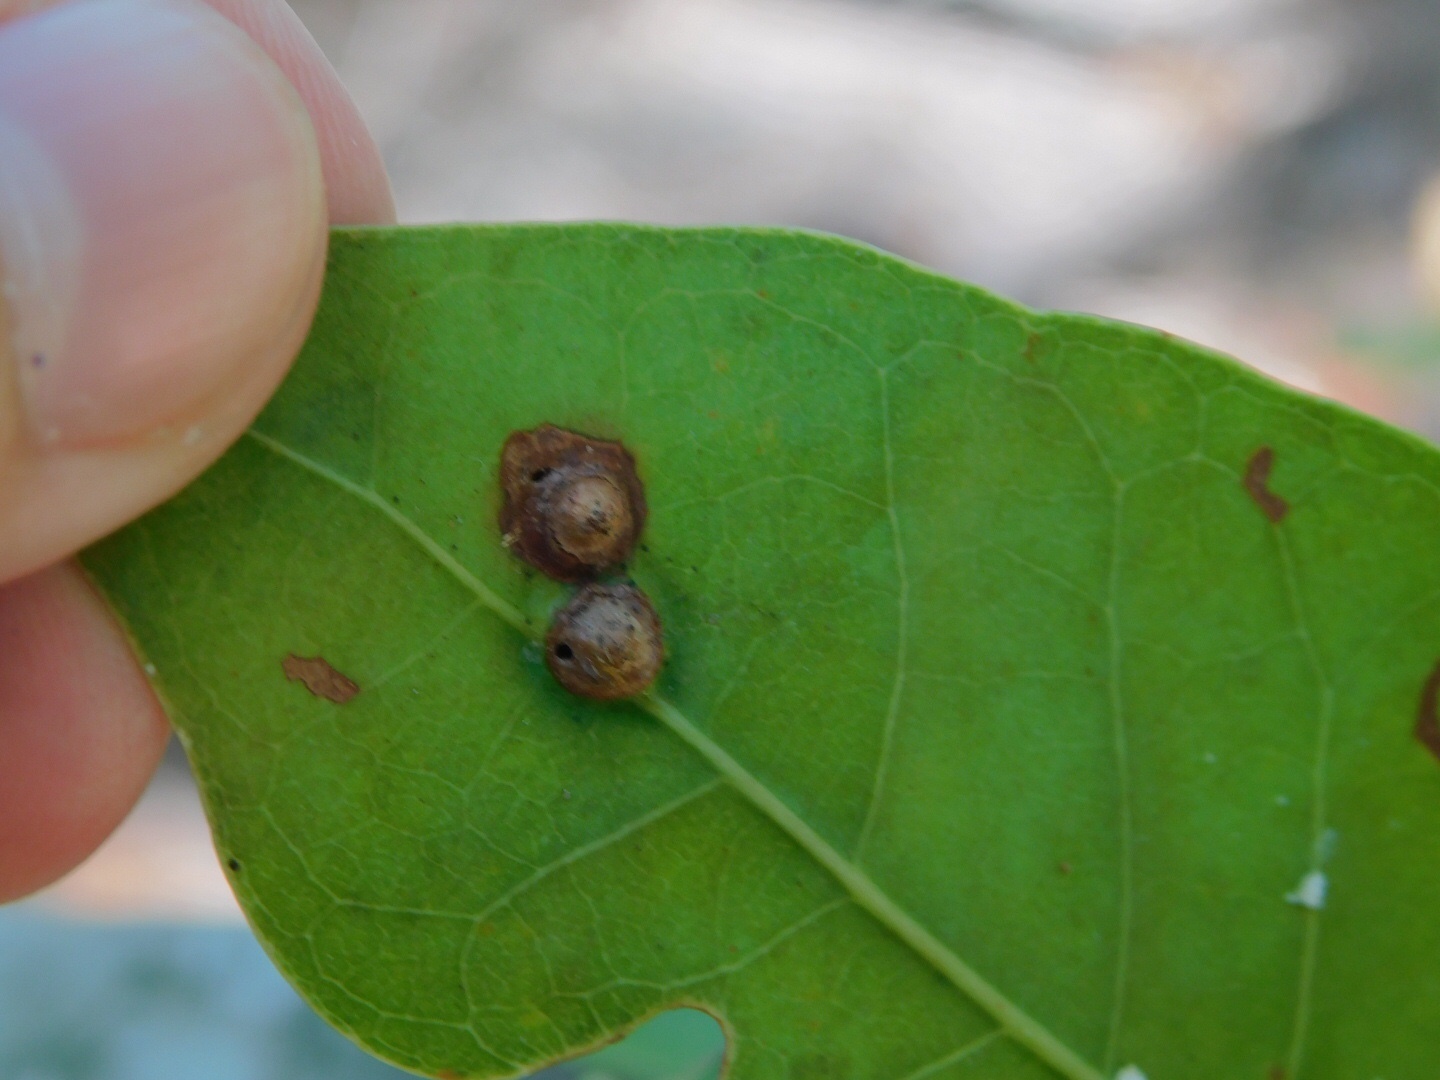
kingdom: Animalia
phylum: Arthropoda
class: Insecta
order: Diptera
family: Cecidomyiidae
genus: Ctenodactylomyia
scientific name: Ctenodactylomyia watsoni
